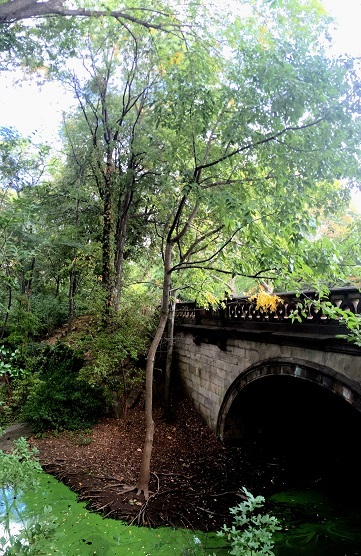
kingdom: Plantae
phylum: Tracheophyta
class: Magnoliopsida
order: Lamiales
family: Oleaceae
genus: Fraxinus
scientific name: Fraxinus profunda
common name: Pumpkin ash
